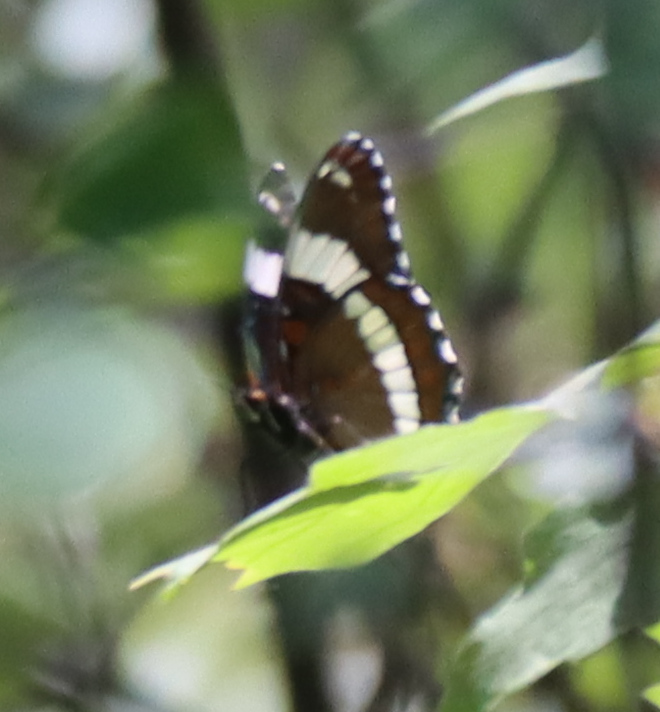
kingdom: Animalia
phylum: Arthropoda
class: Insecta
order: Lepidoptera
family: Nymphalidae
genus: Limenitis
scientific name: Limenitis arthemis
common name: Red-spotted admiral
